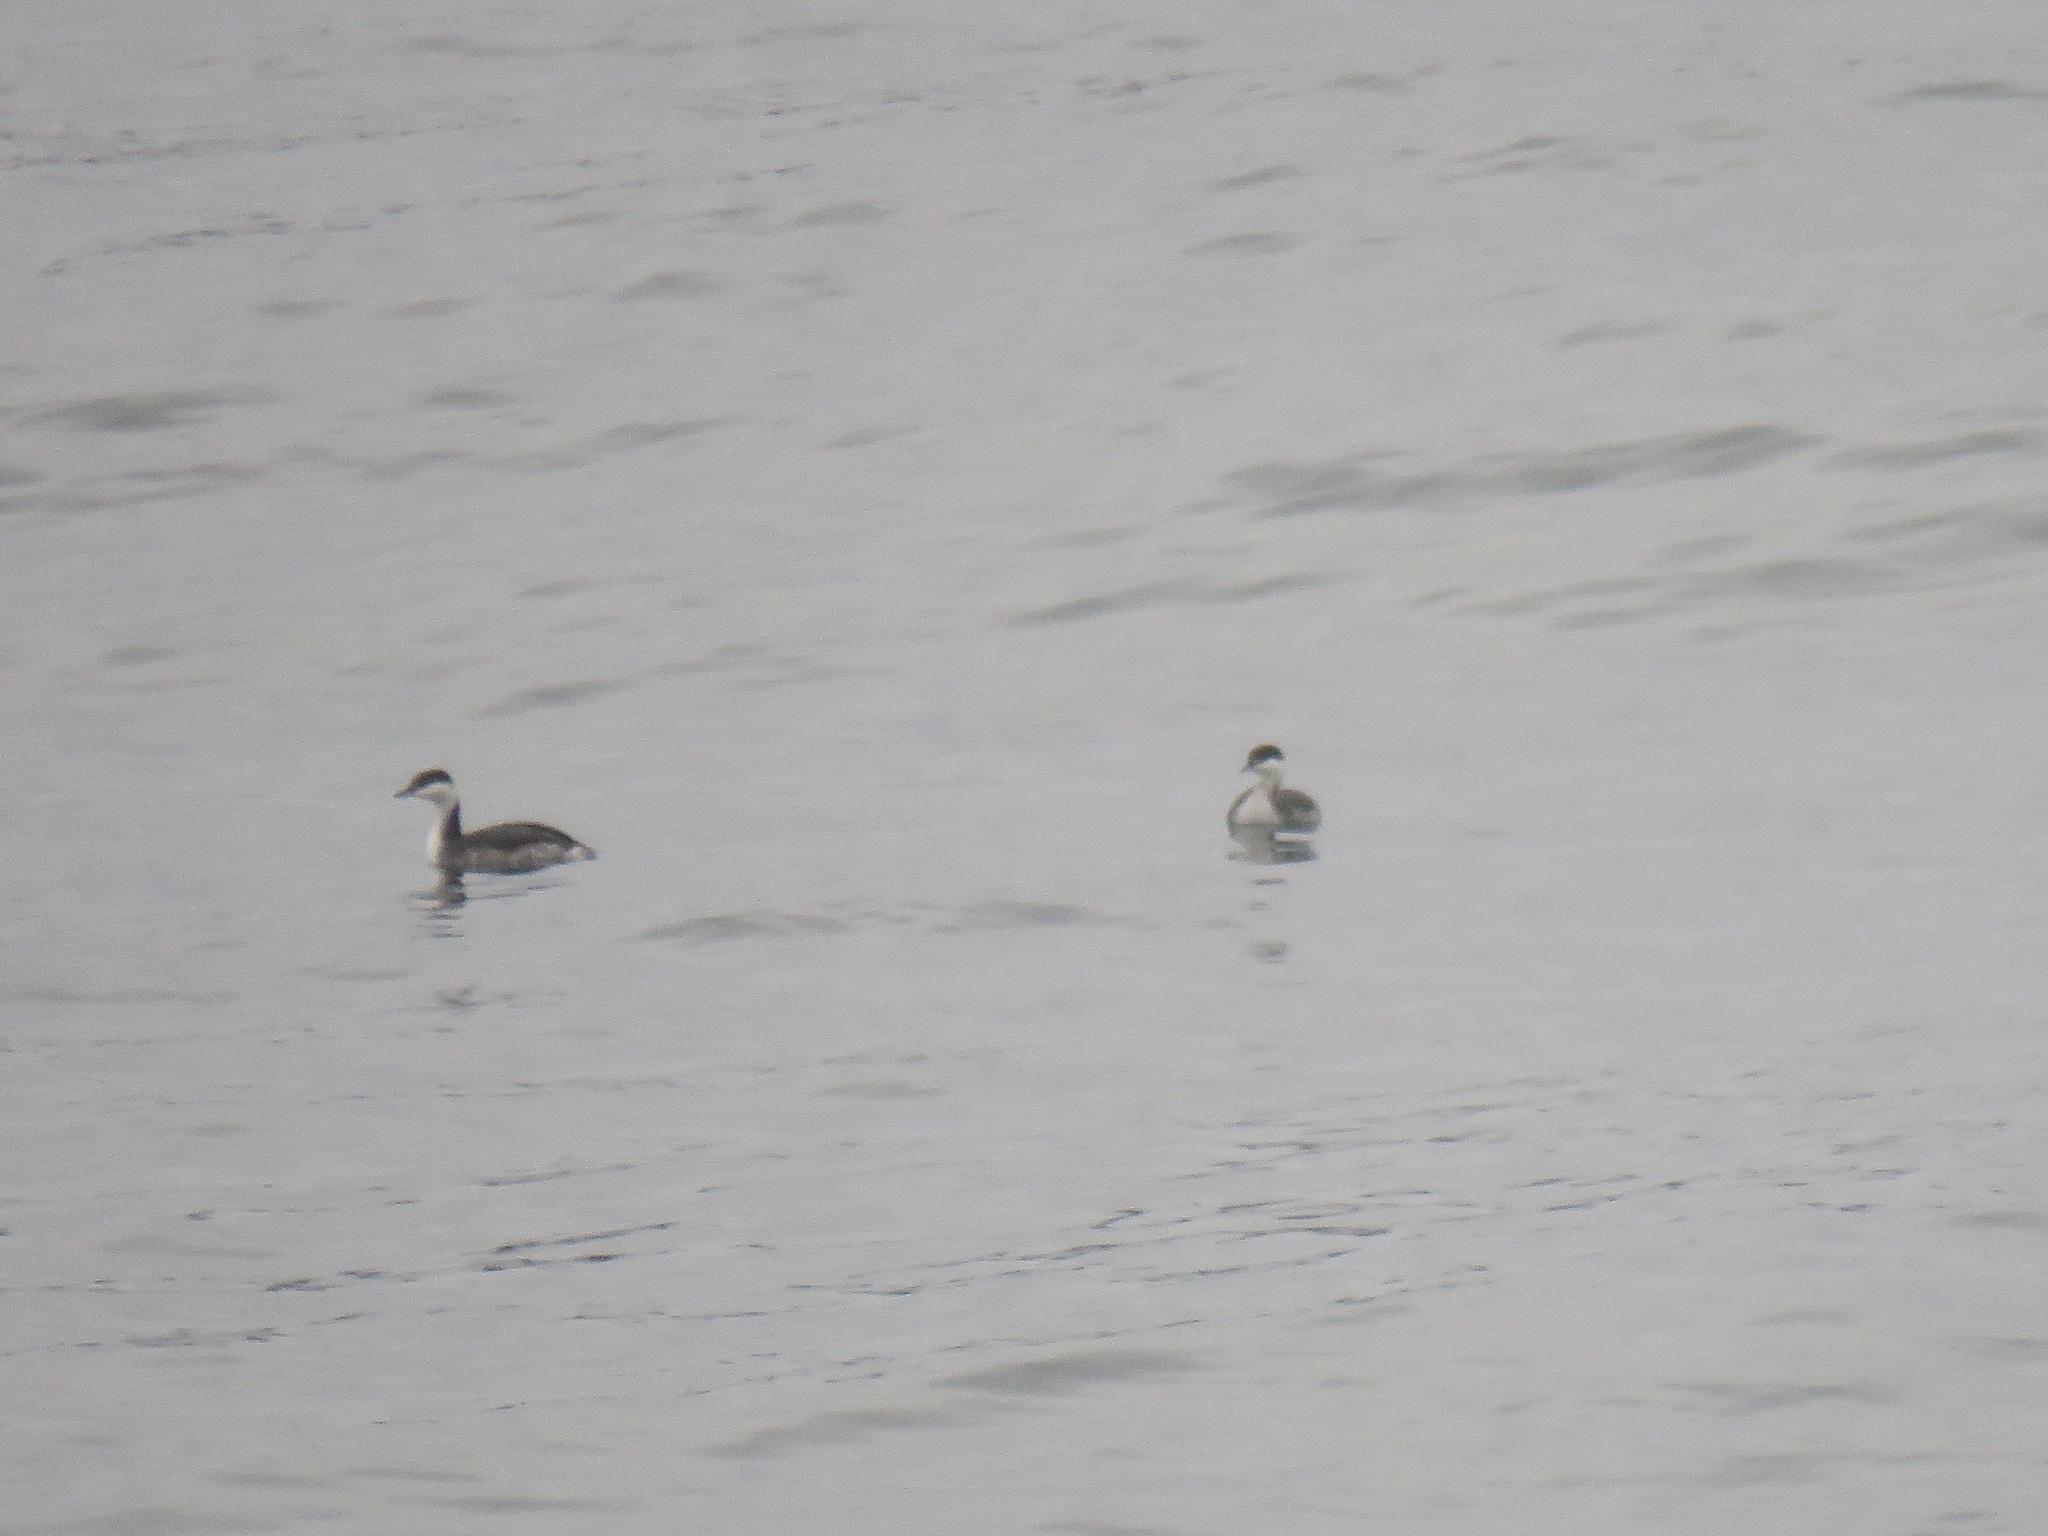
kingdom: Animalia
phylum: Chordata
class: Aves
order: Podicipediformes
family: Podicipedidae
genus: Podiceps
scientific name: Podiceps auritus
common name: Horned grebe
